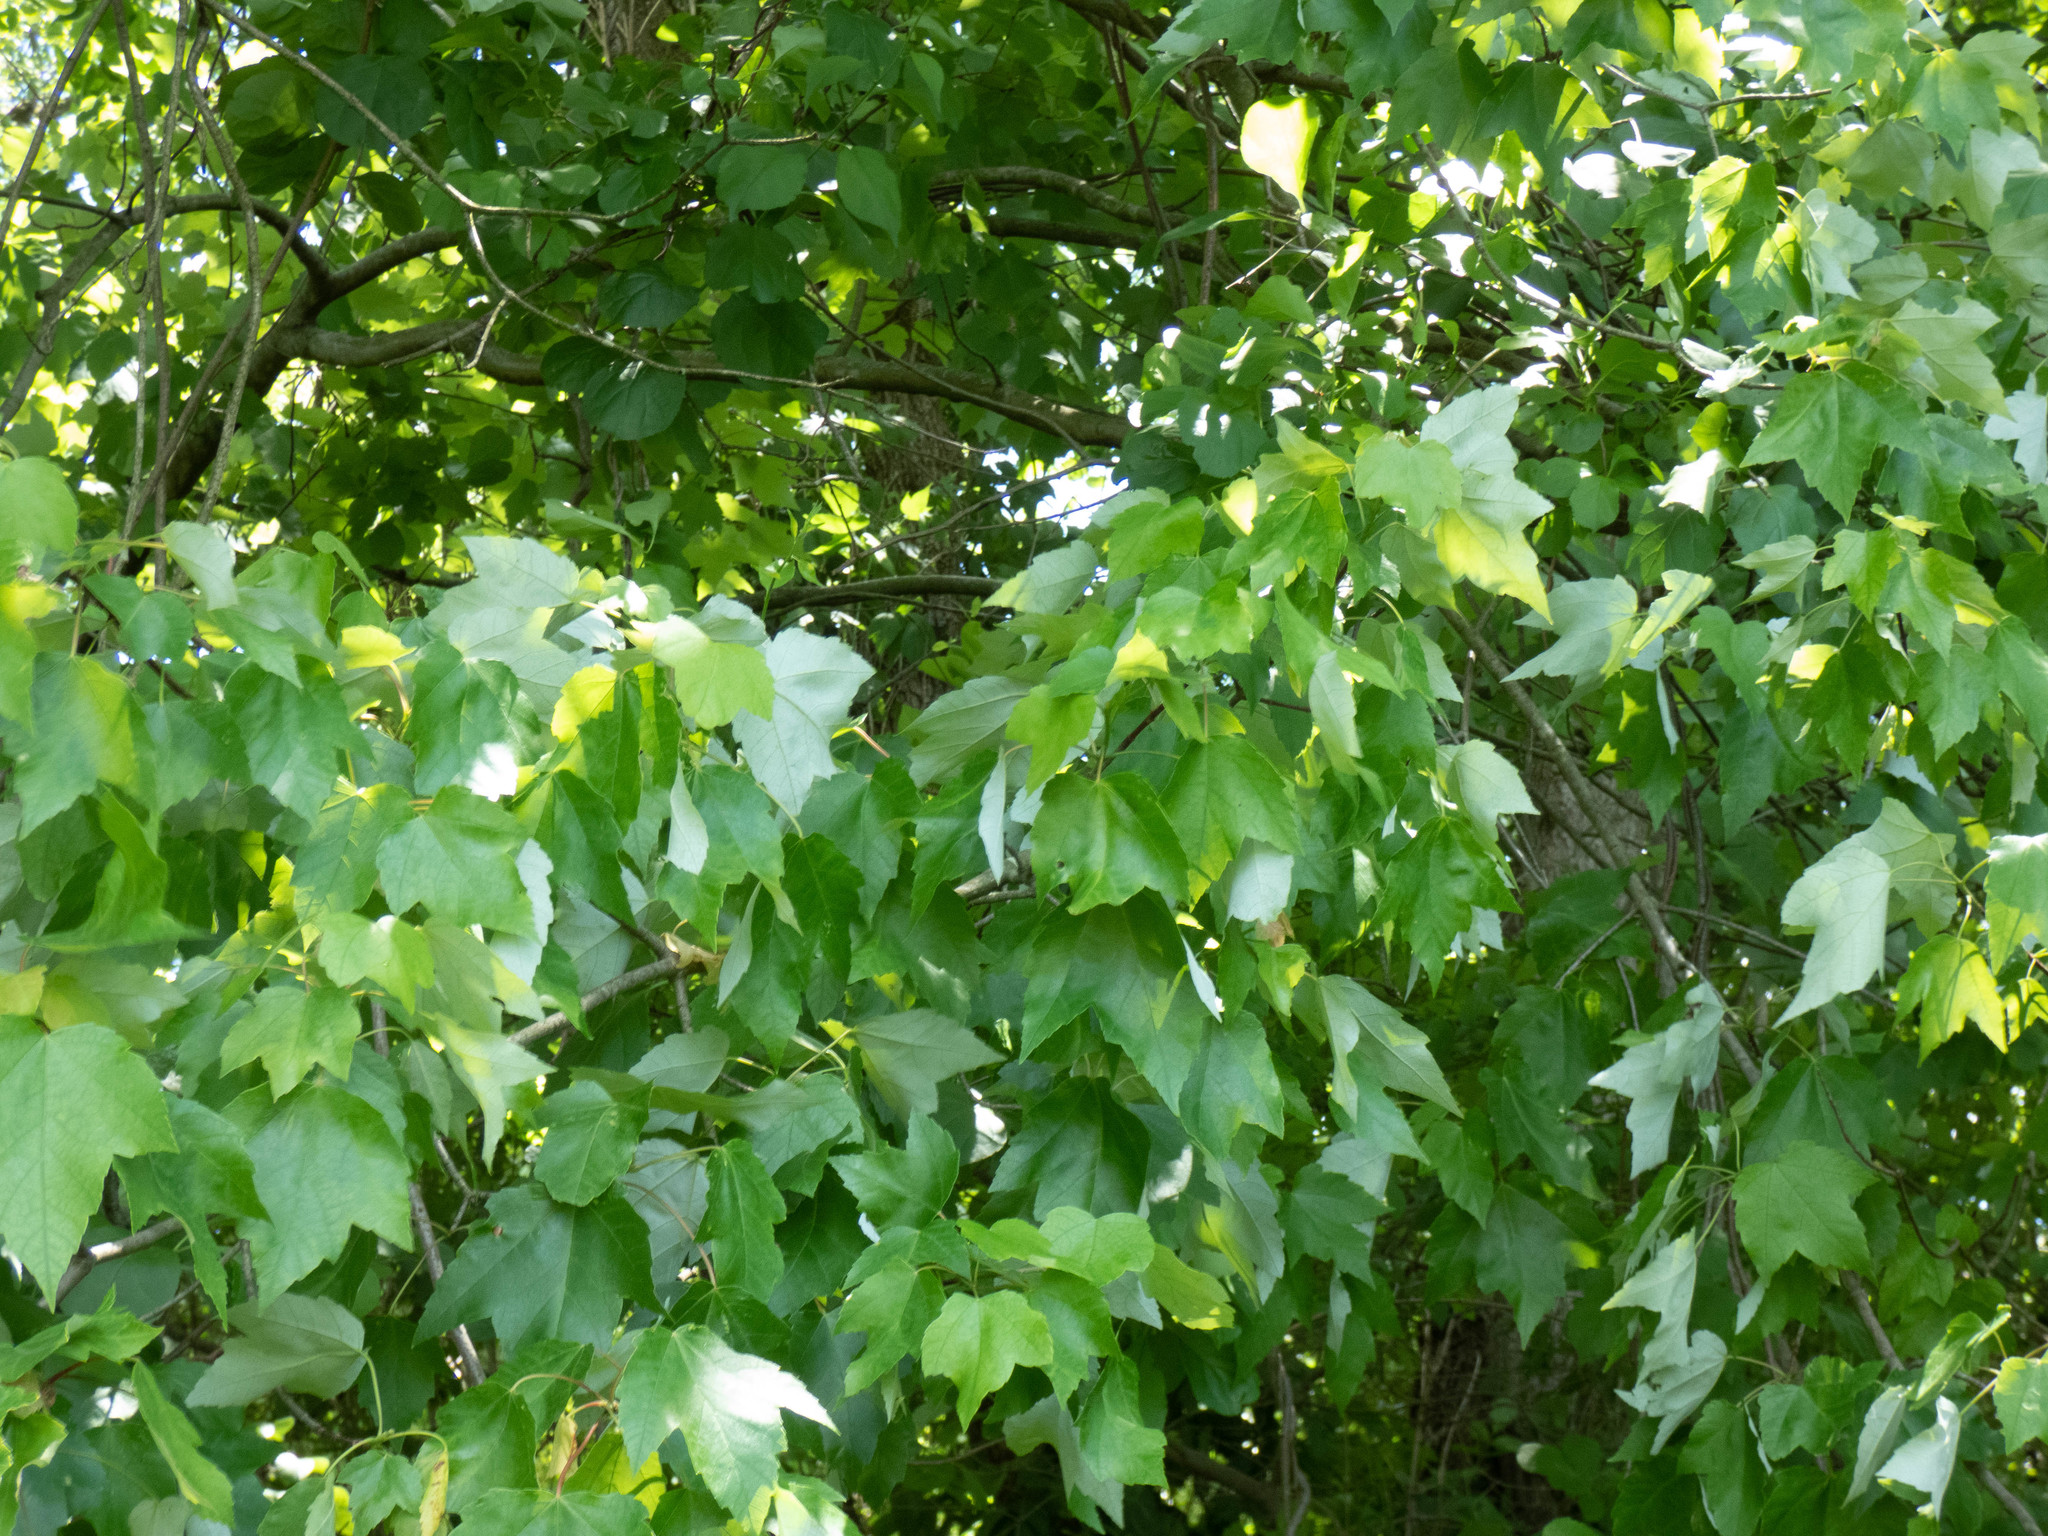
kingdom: Plantae
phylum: Tracheophyta
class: Magnoliopsida
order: Sapindales
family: Sapindaceae
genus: Acer
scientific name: Acer rubrum
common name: Red maple
